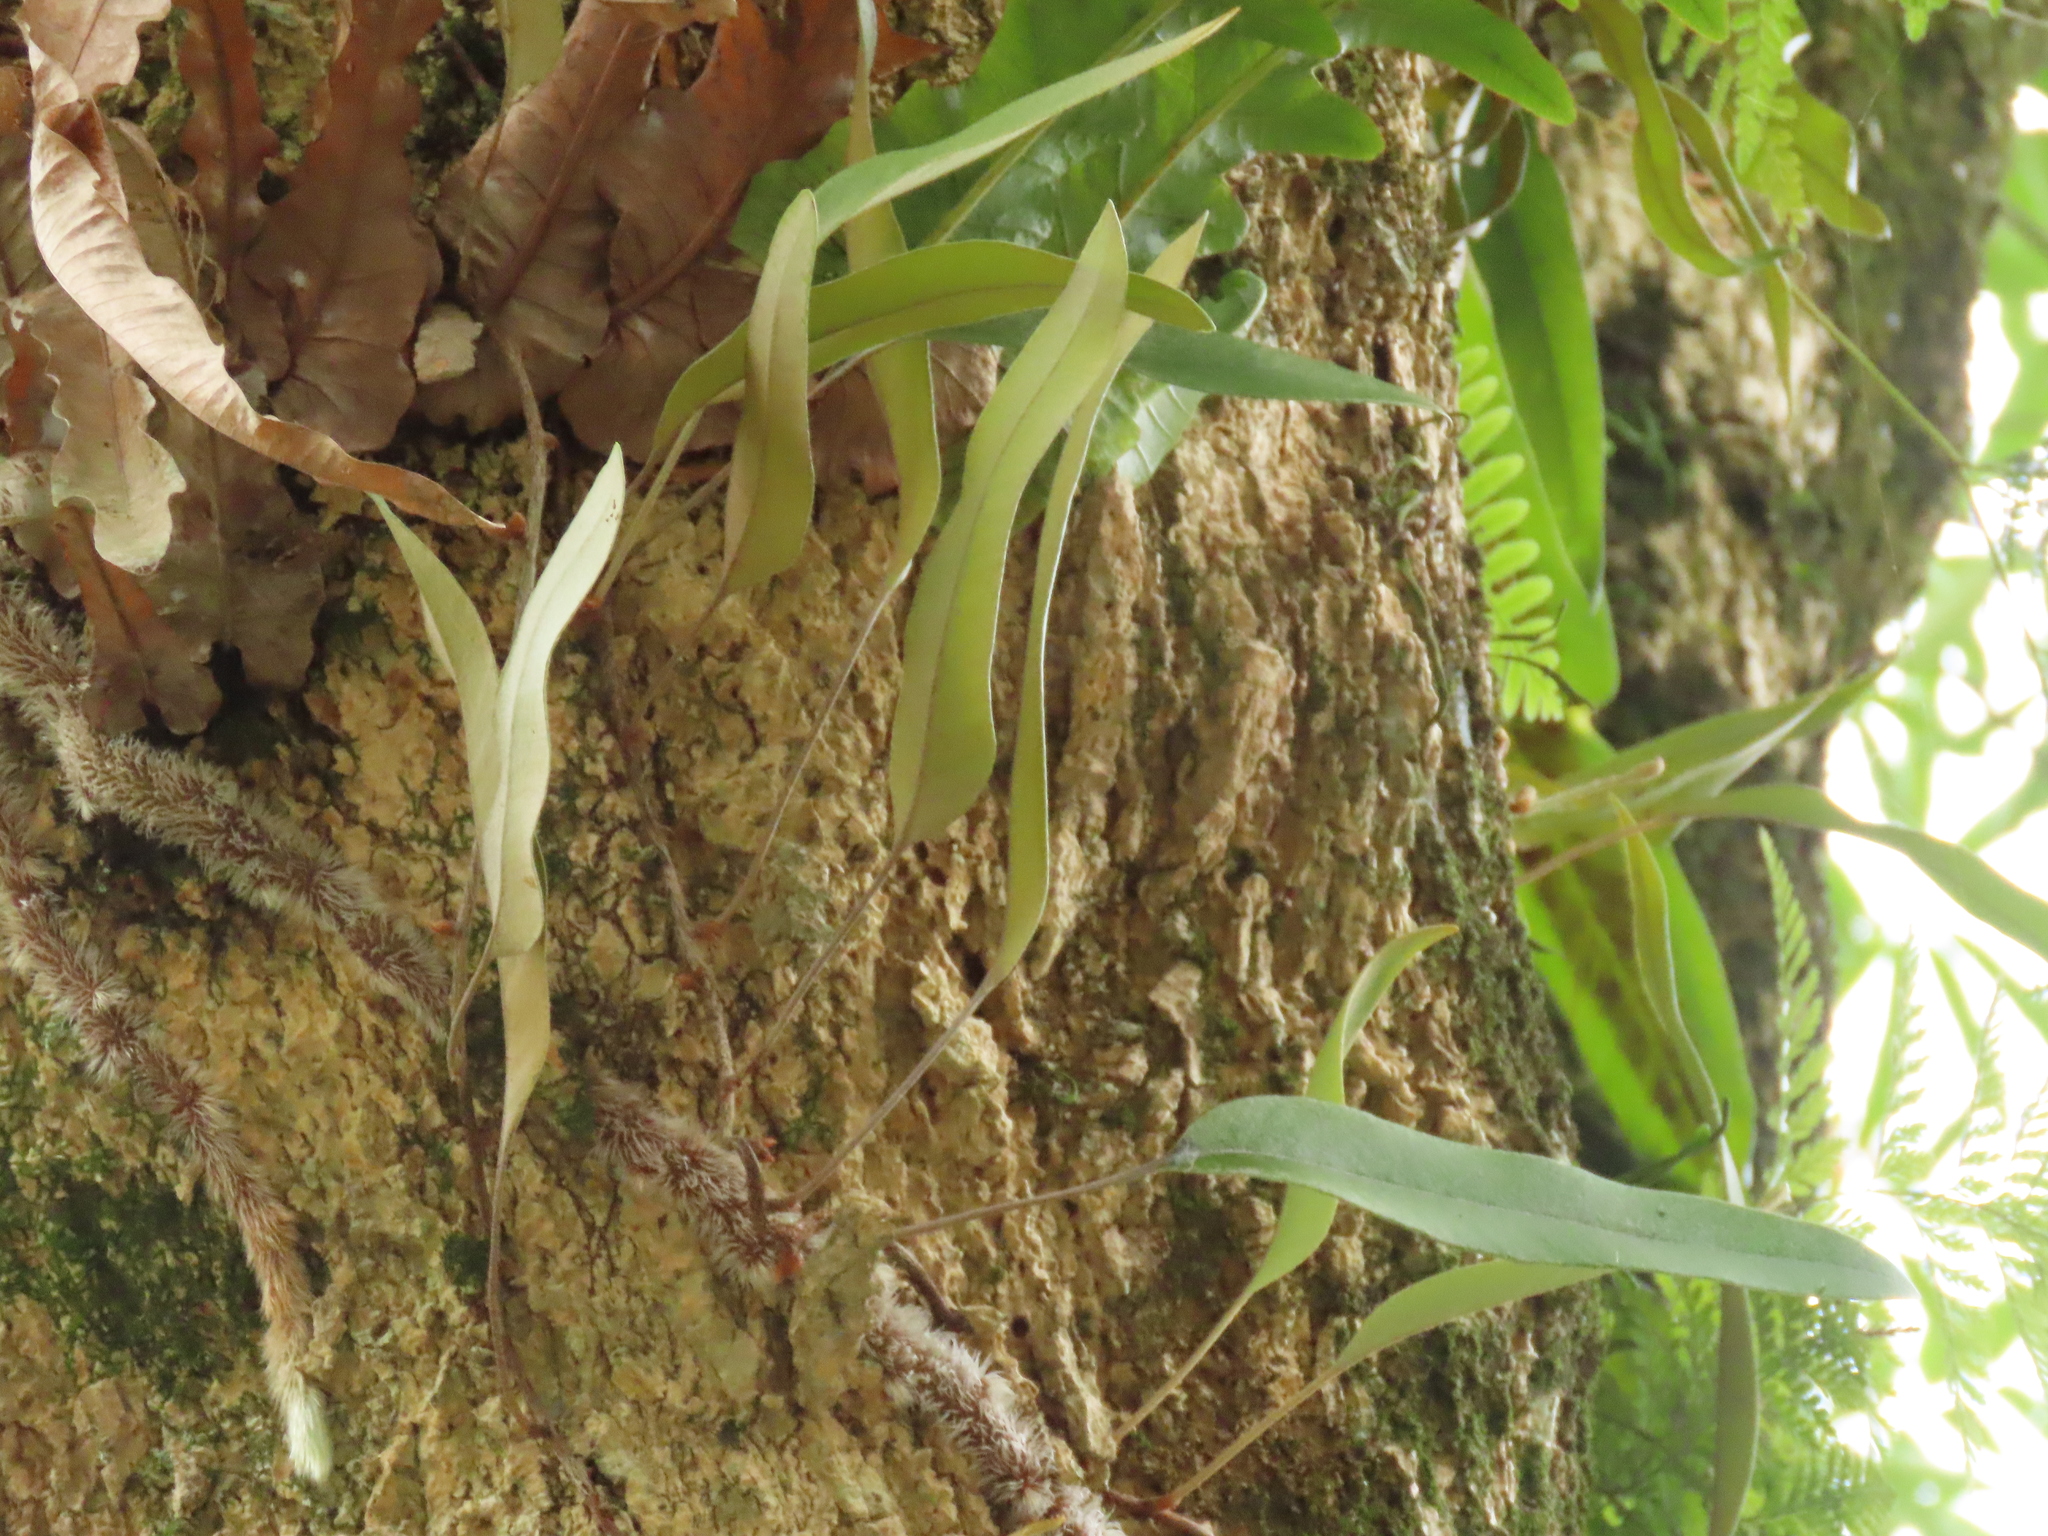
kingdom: Plantae
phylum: Tracheophyta
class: Polypodiopsida
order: Polypodiales
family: Polypodiaceae
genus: Pyrrosia
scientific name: Pyrrosia lingua
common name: Felt fern
